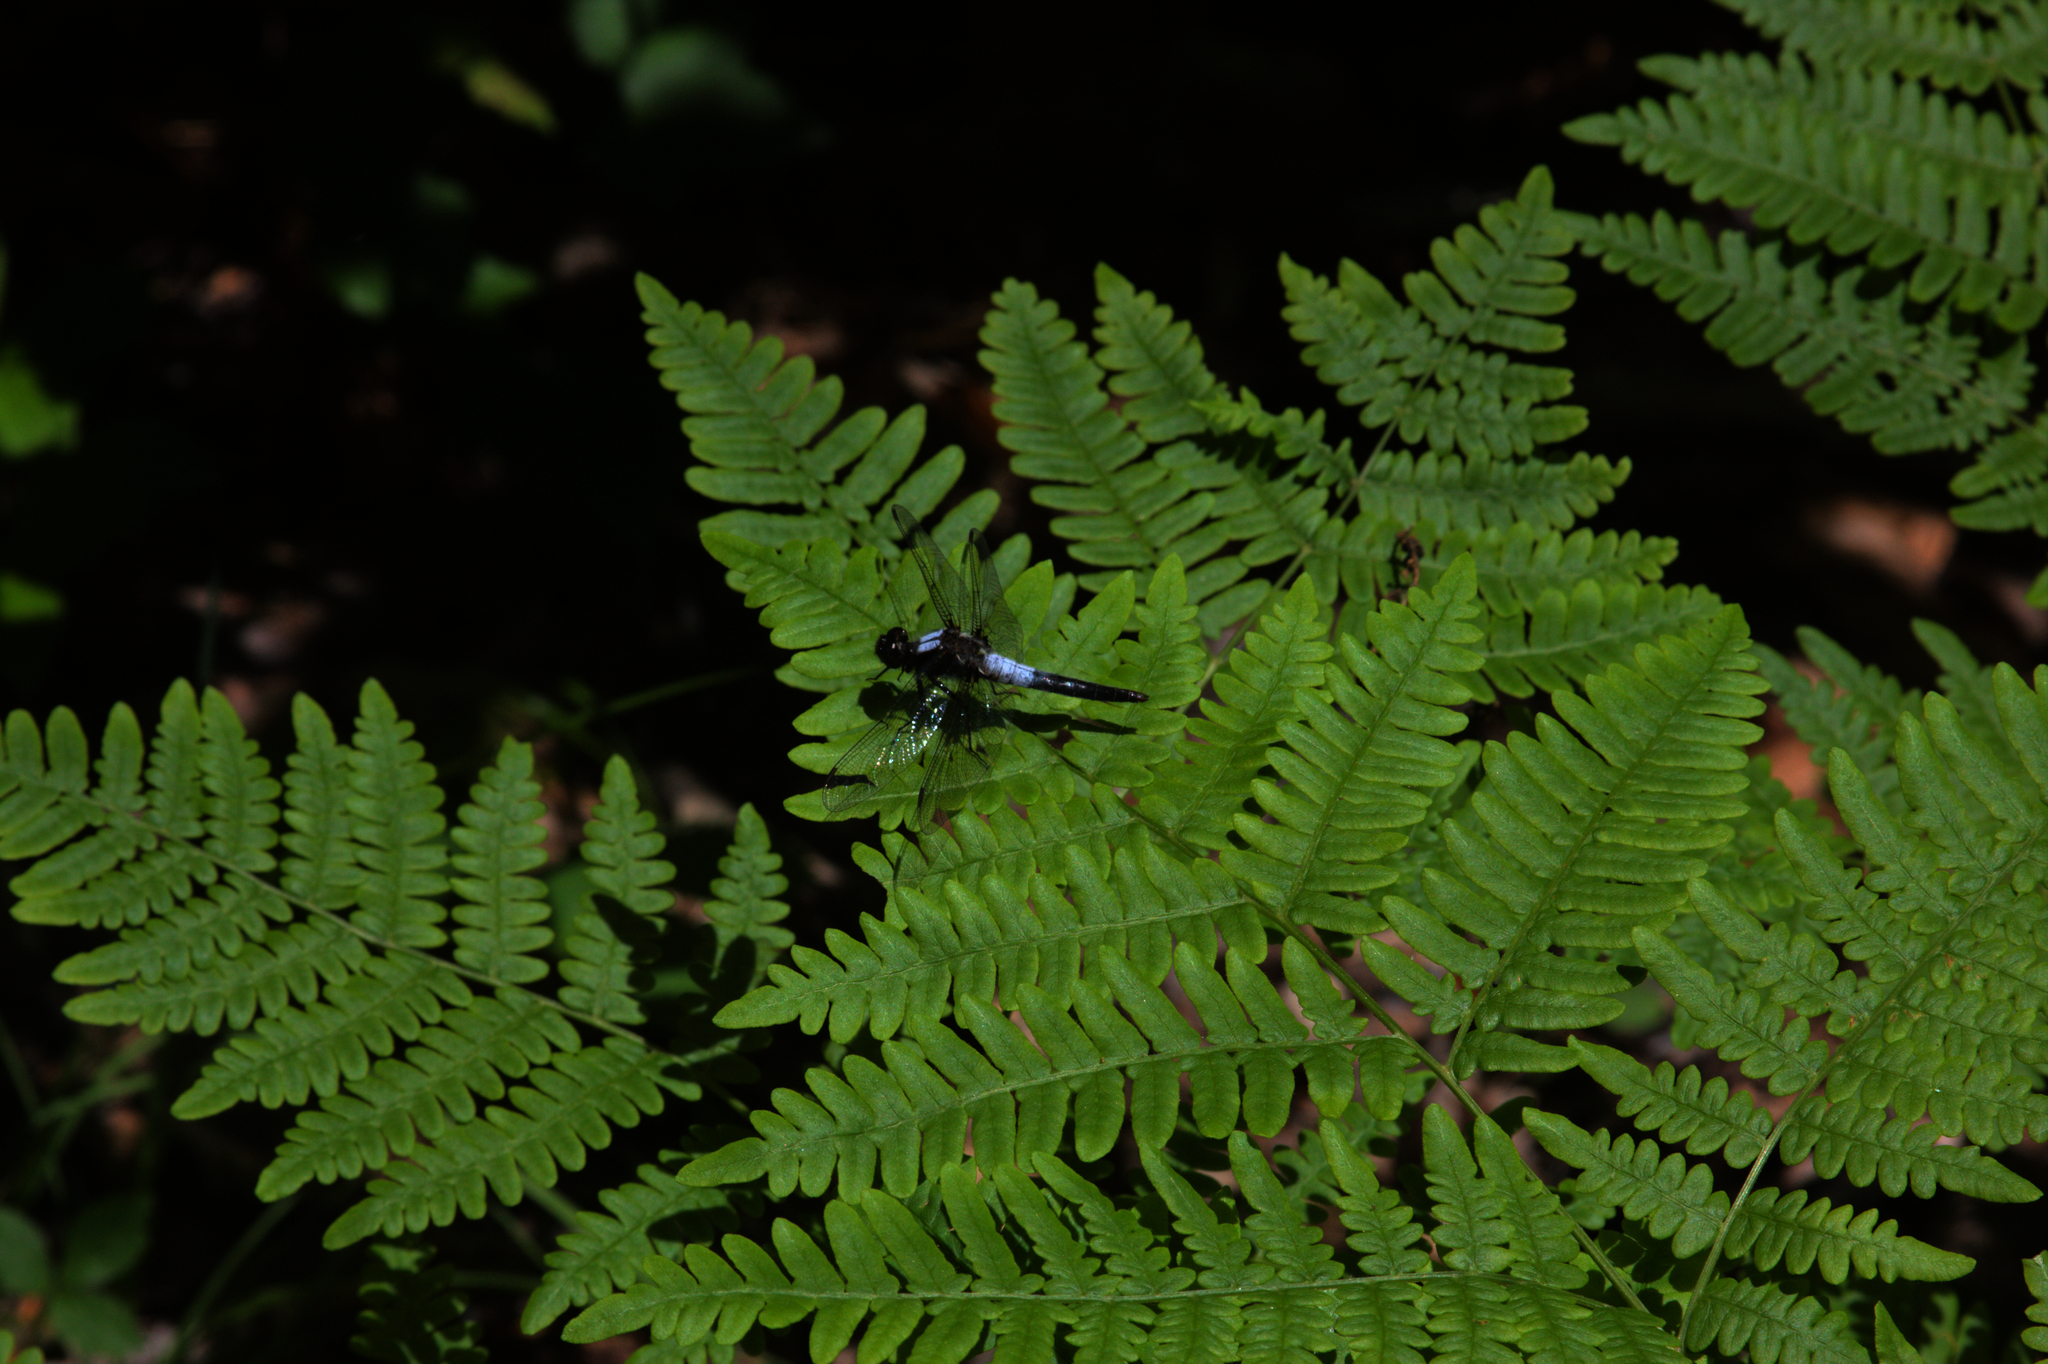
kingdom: Animalia
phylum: Arthropoda
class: Insecta
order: Odonata
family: Libellulidae
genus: Ladona
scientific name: Ladona julia
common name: Chalk-fronted corporal
